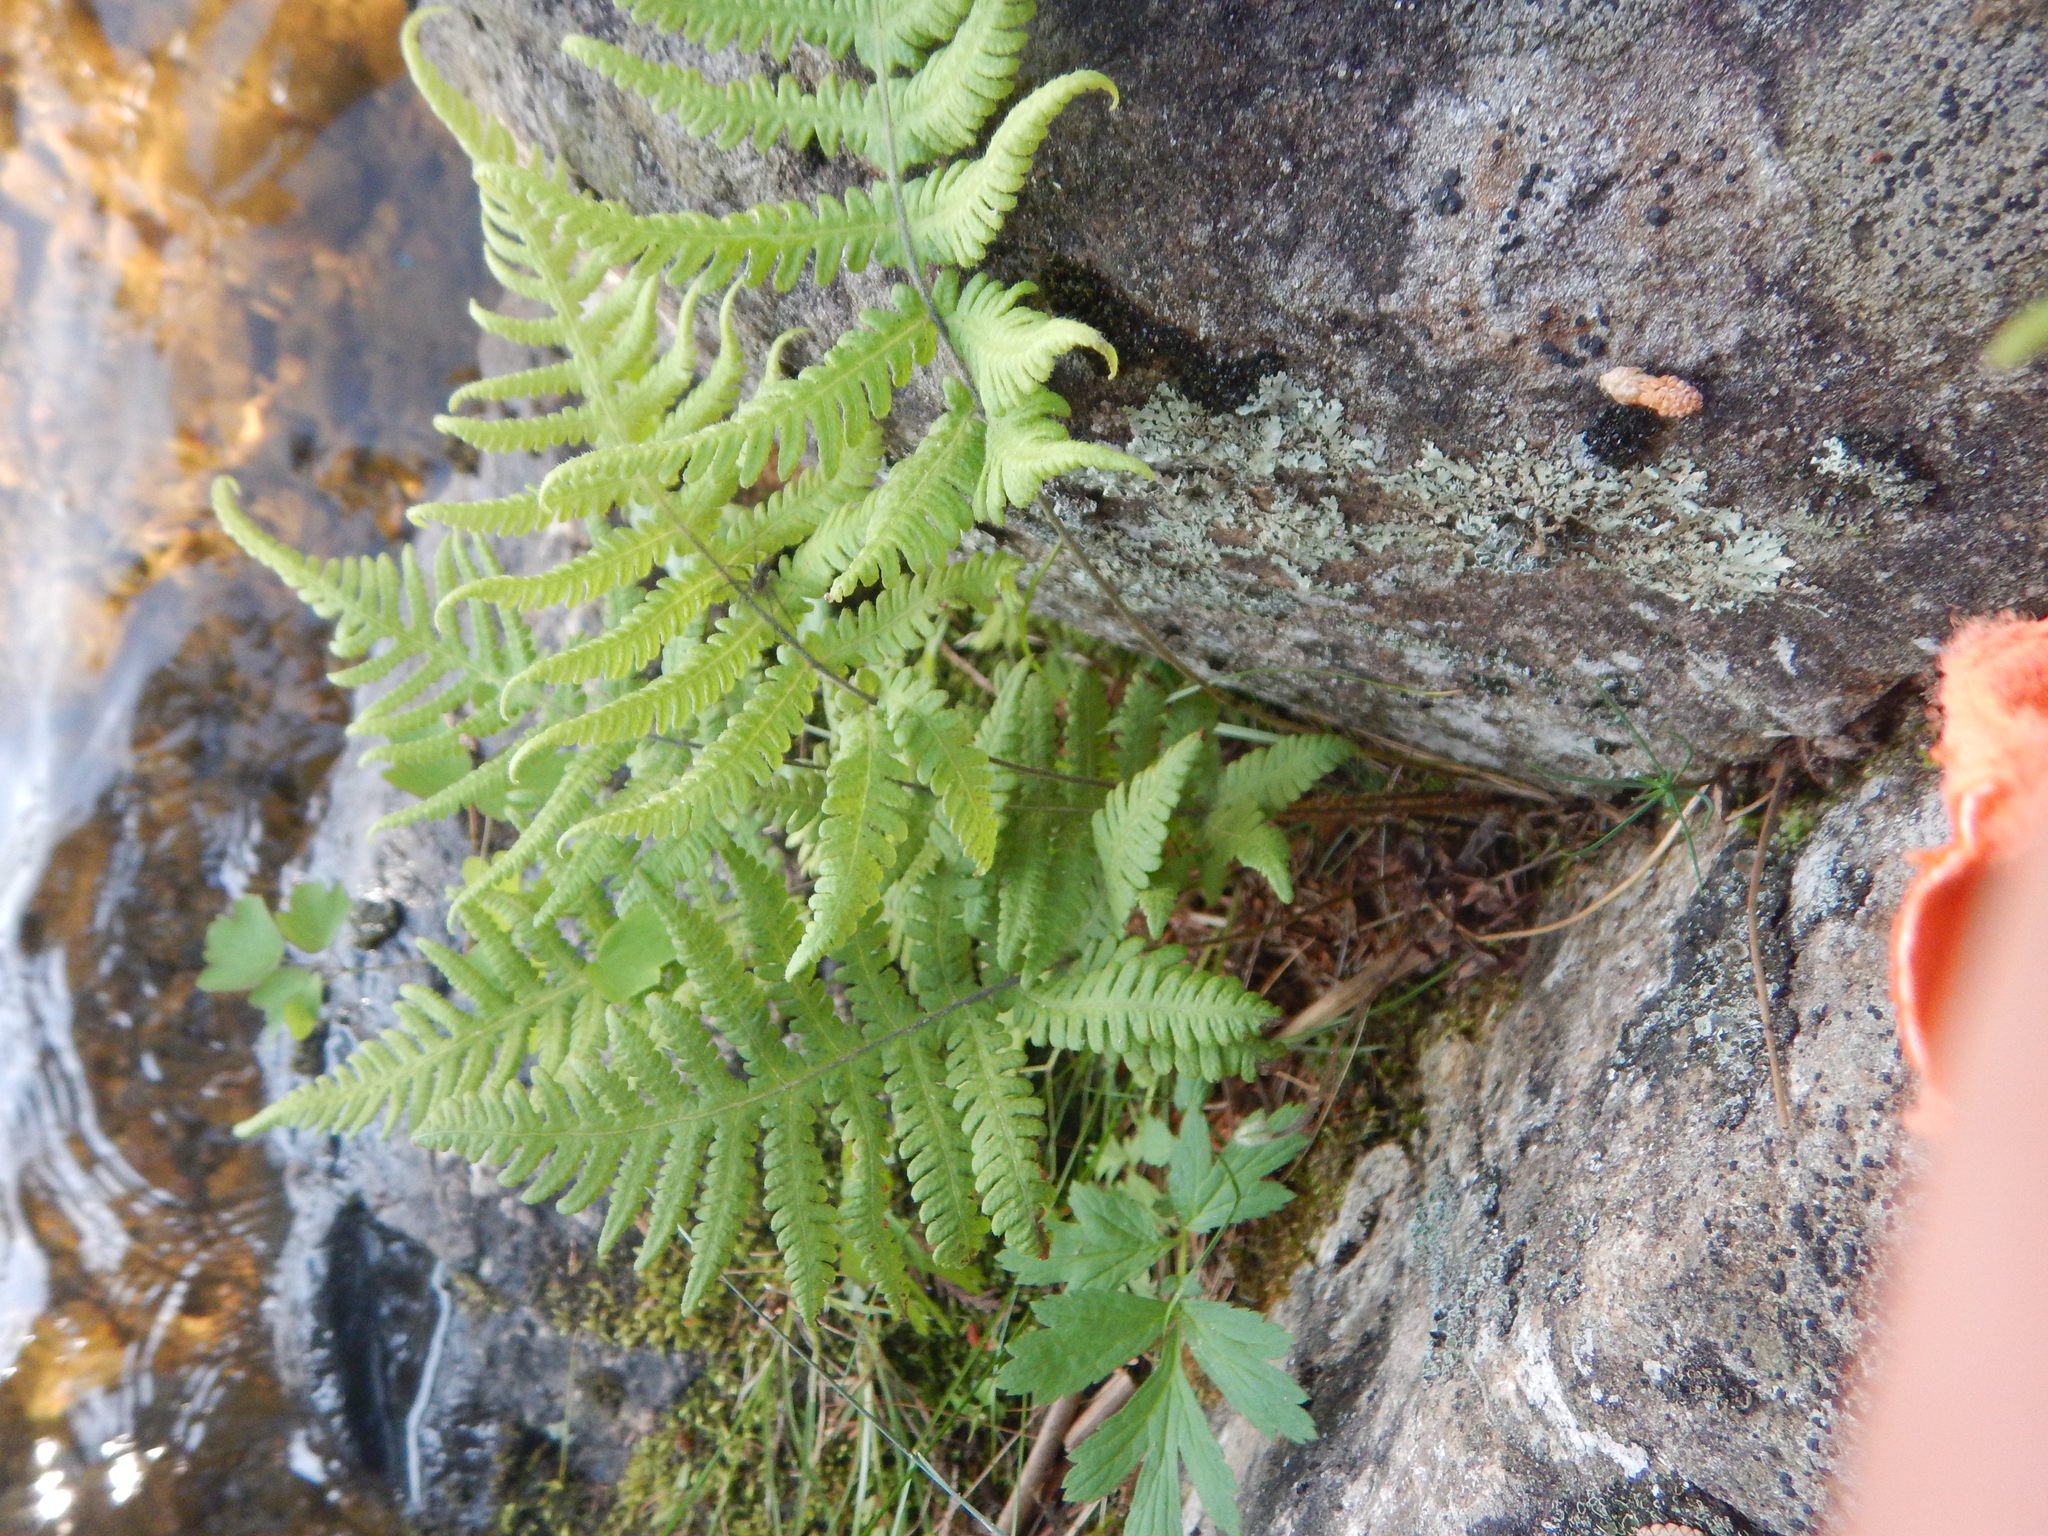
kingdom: Plantae
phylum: Tracheophyta
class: Polypodiopsida
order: Polypodiales
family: Thelypteridaceae
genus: Phegopteris
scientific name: Phegopteris connectilis
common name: Beech fern
